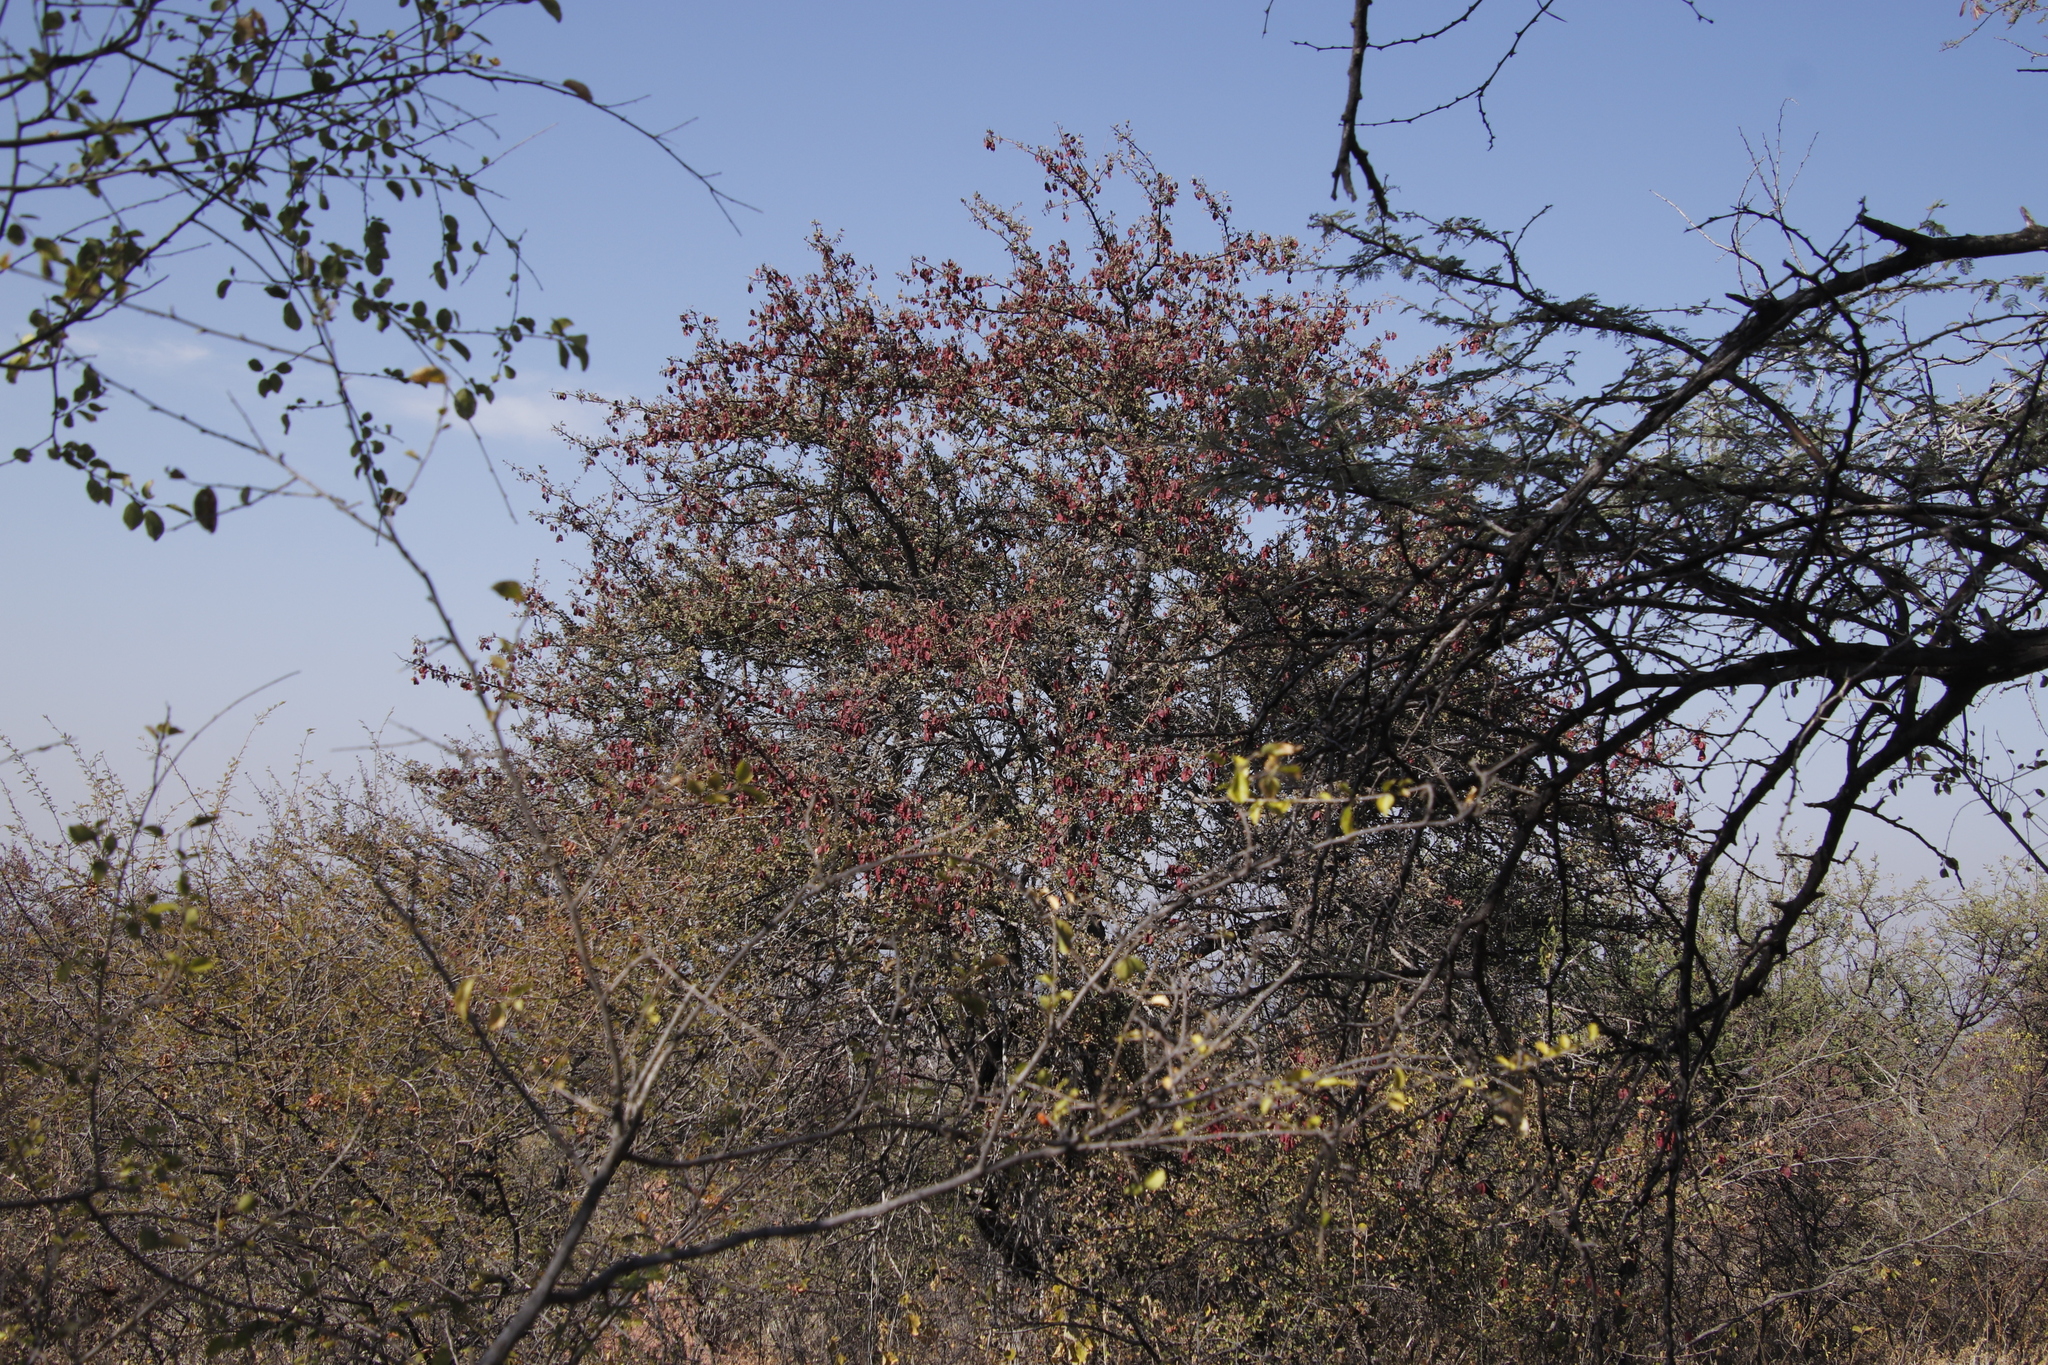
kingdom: Plantae
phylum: Tracheophyta
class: Magnoliopsida
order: Myrtales
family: Combretaceae
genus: Terminalia
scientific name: Terminalia prunioides
